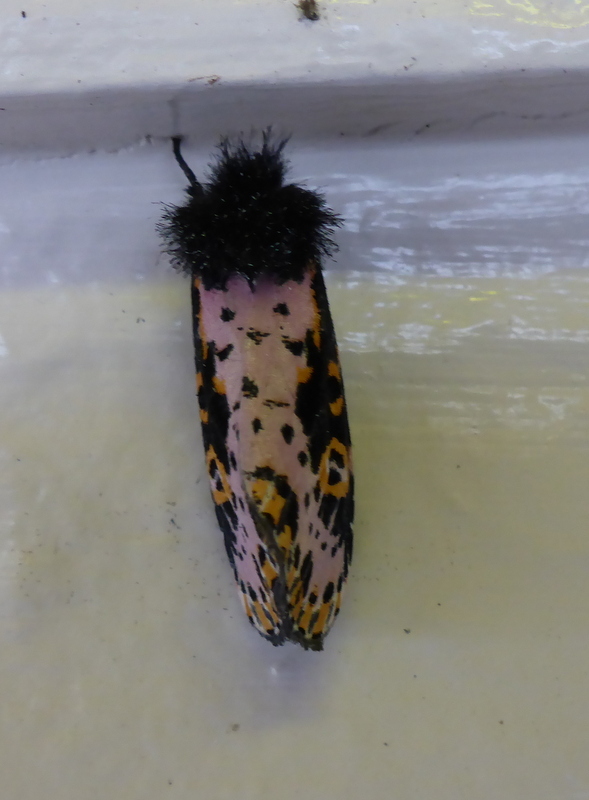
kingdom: Animalia
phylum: Arthropoda
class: Insecta
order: Lepidoptera
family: Noctuidae
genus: Xanthopastis
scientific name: Xanthopastis regnatrix
